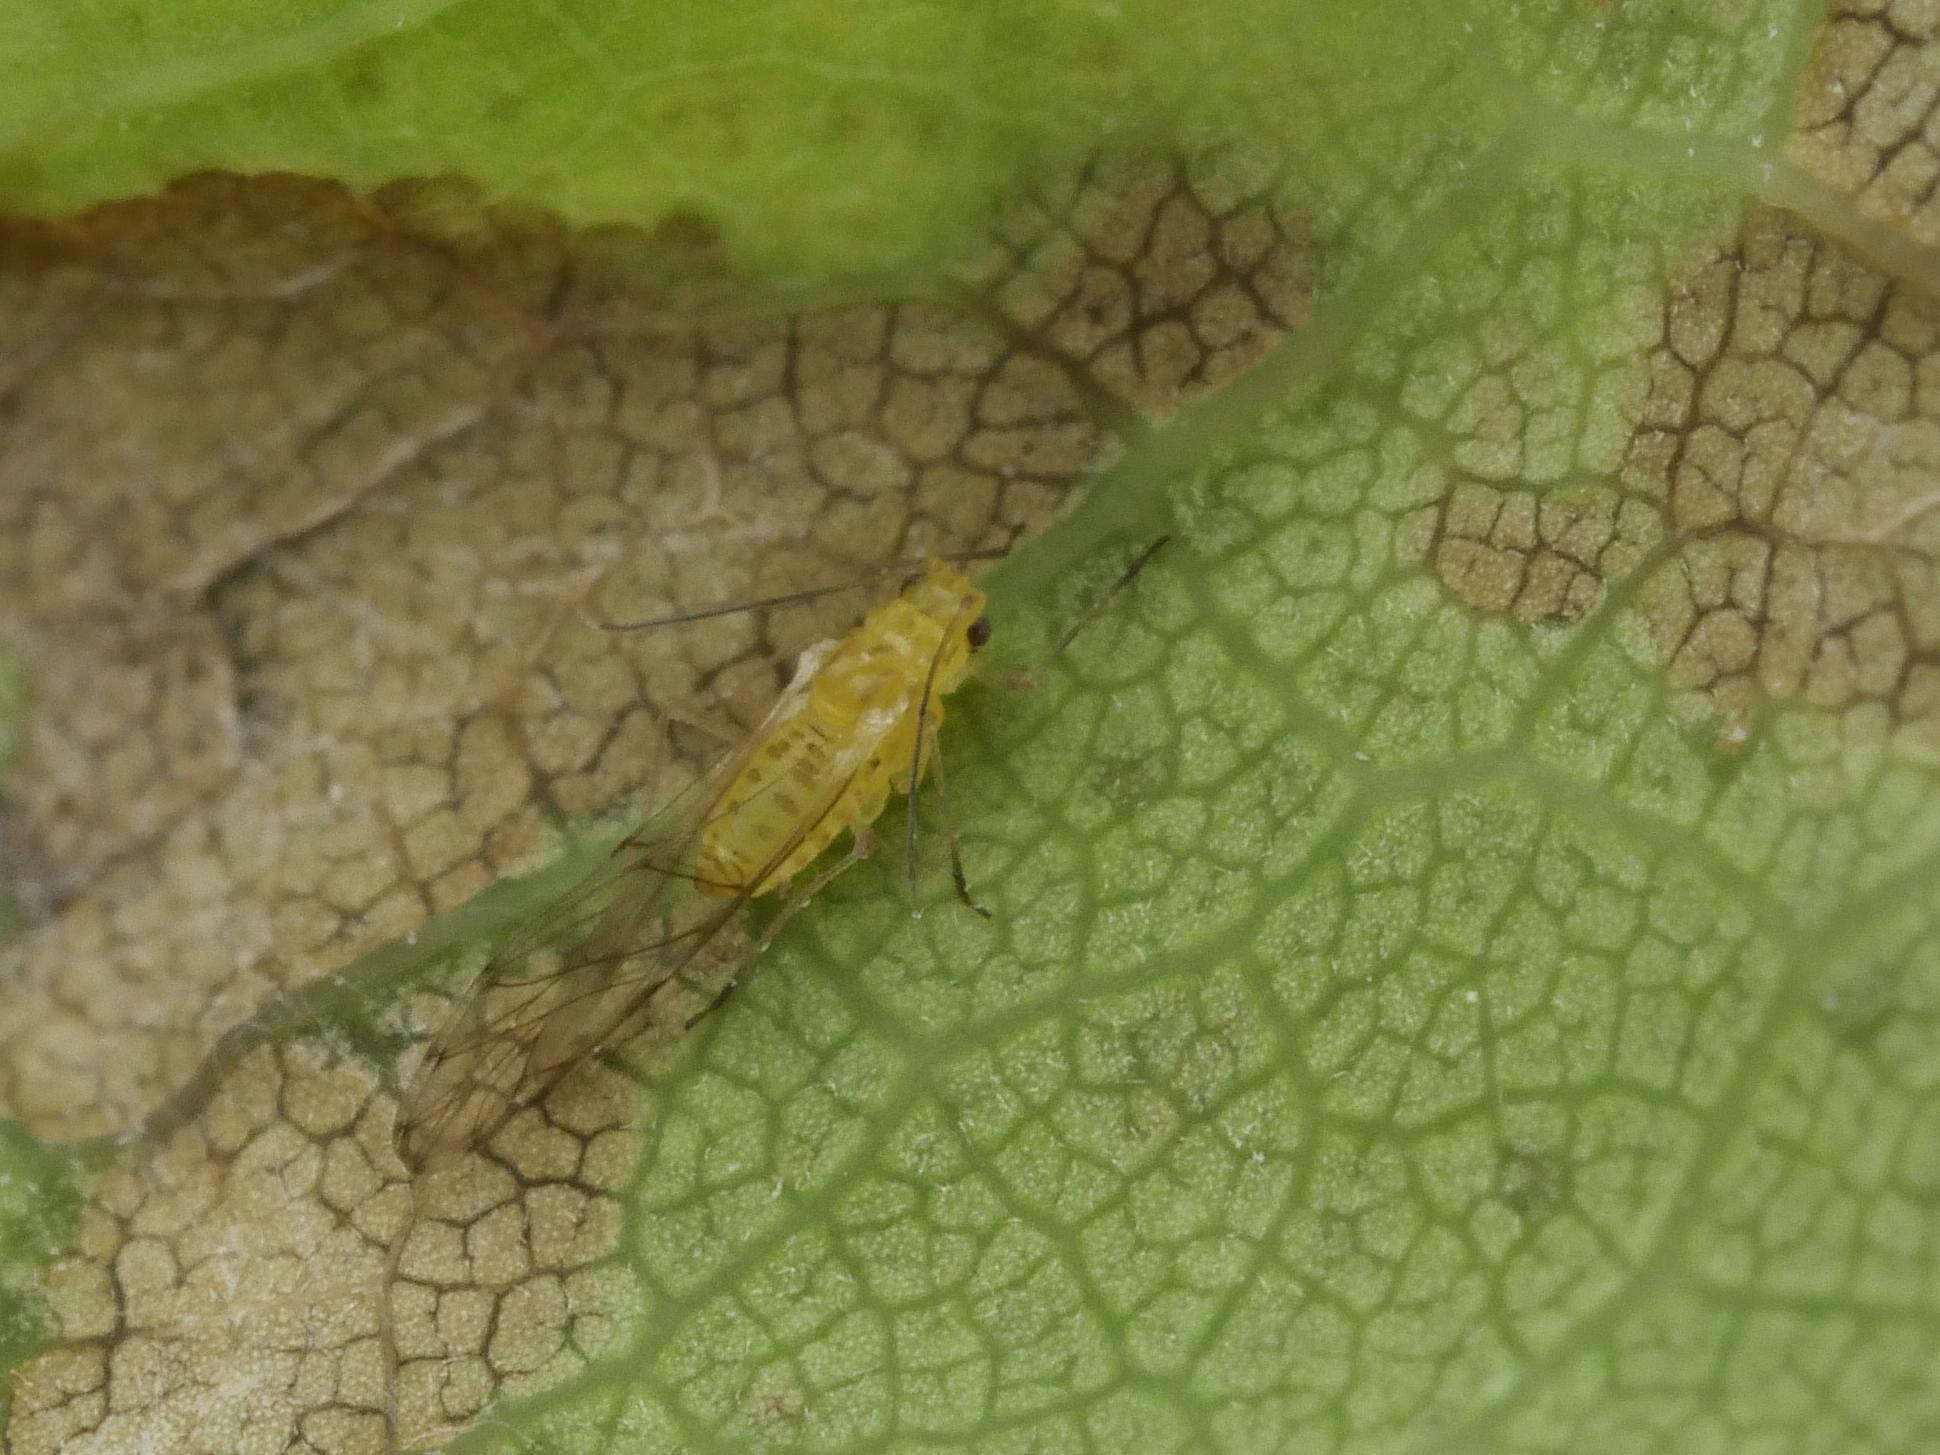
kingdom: Animalia
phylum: Arthropoda
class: Insecta
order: Hemiptera
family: Aphididae
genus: Takecallis
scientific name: Takecallis
